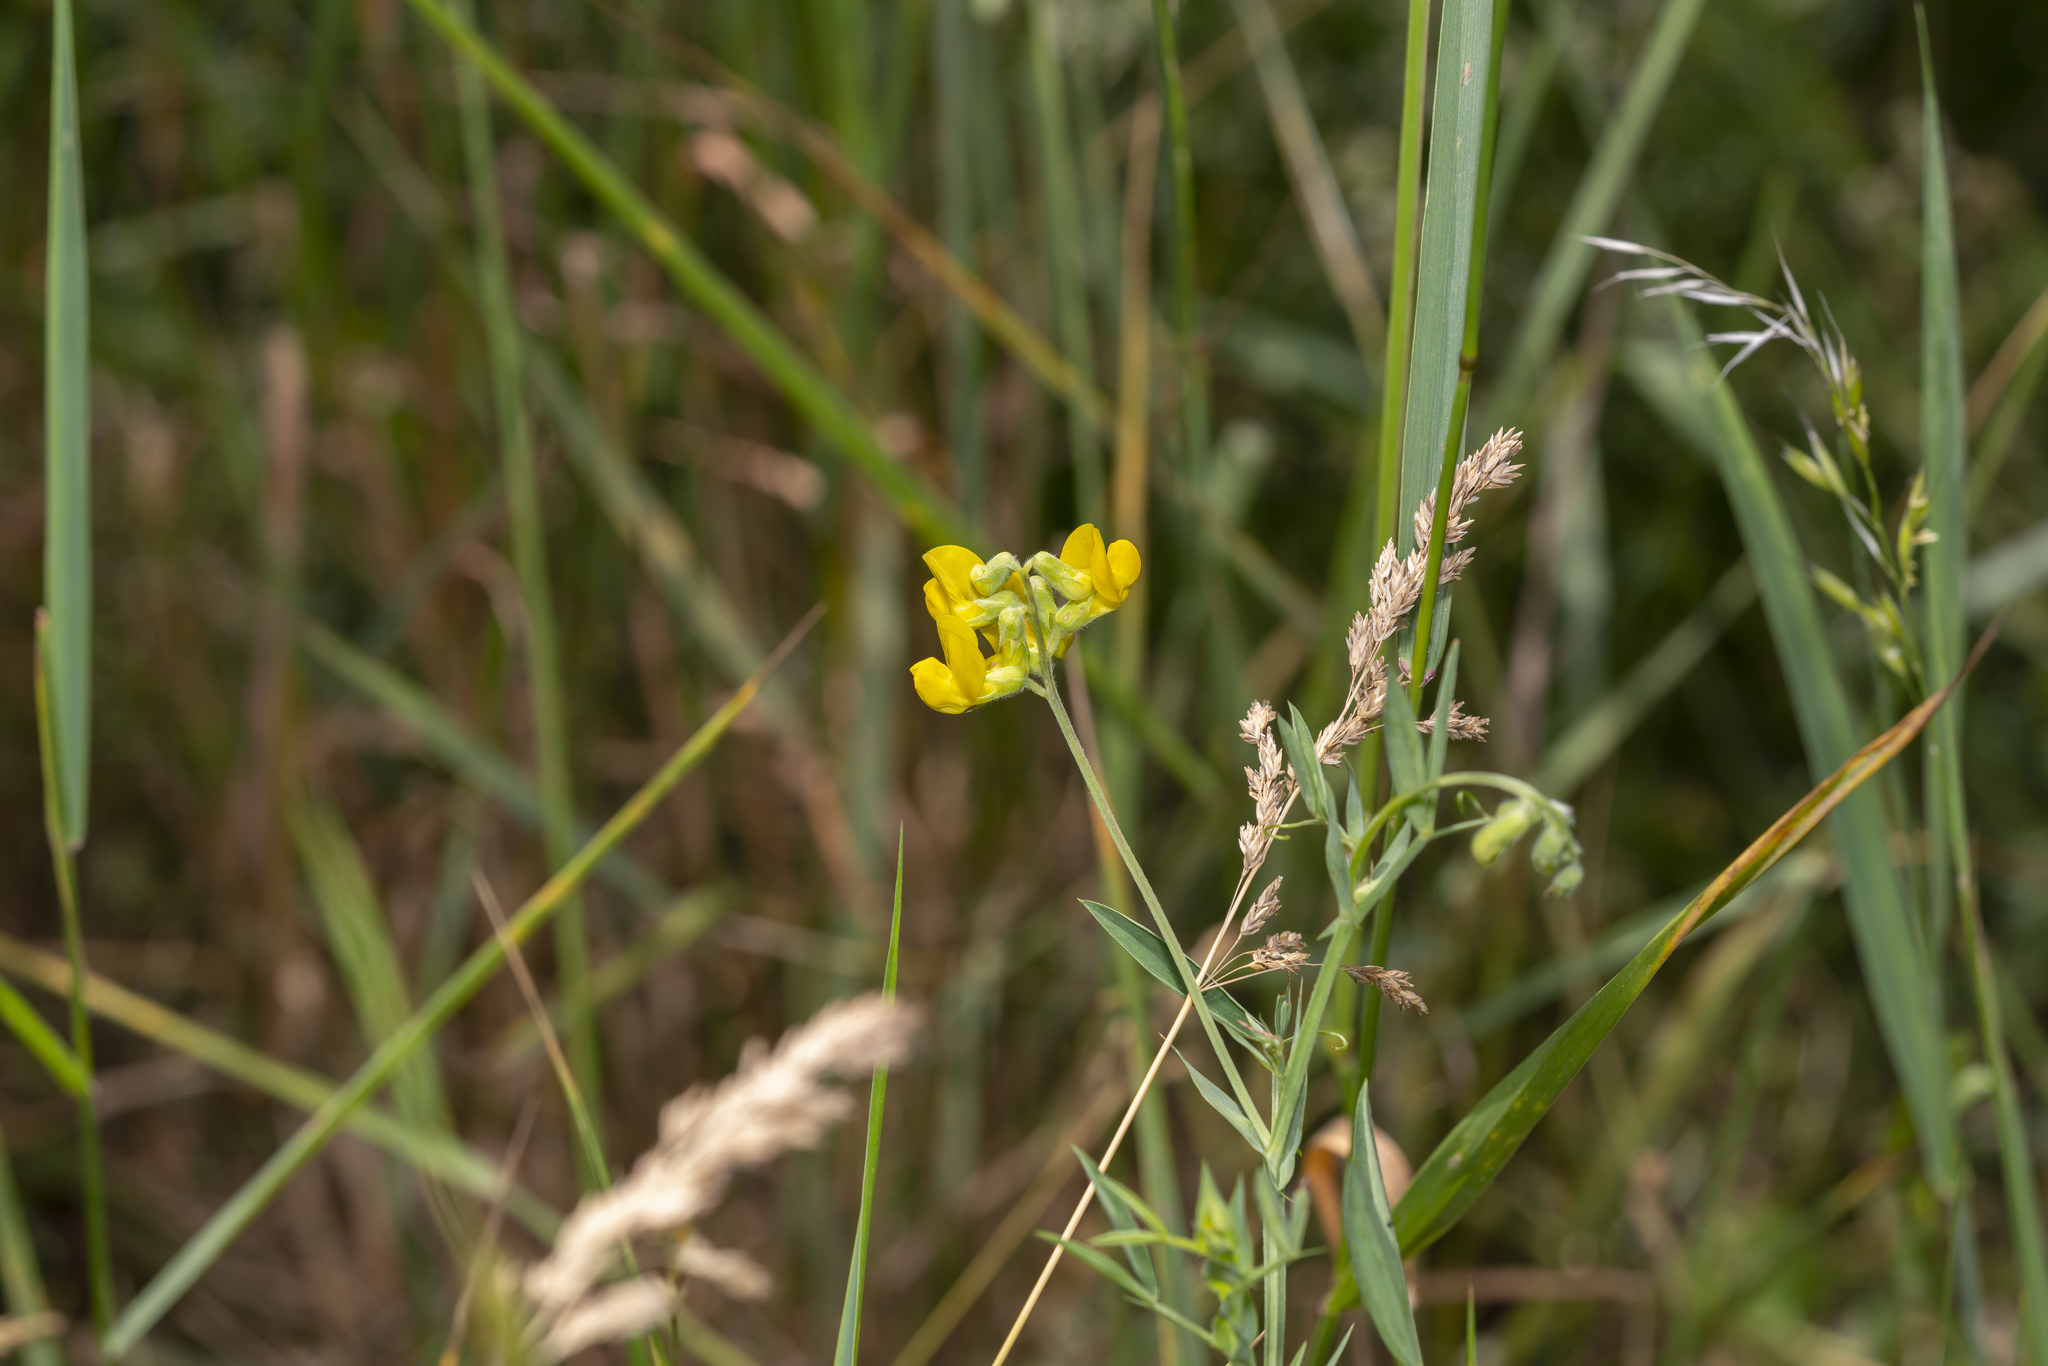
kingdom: Plantae
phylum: Tracheophyta
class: Magnoliopsida
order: Fabales
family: Fabaceae
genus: Lathyrus
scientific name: Lathyrus pratensis
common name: Meadow vetchling
